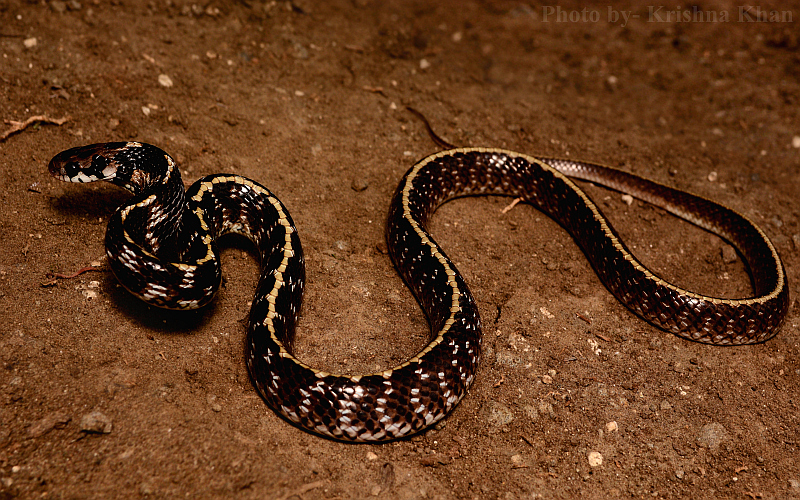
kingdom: Animalia
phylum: Chordata
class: Squamata
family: Colubridae
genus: Boiga
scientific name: Boiga westermanni
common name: Indian egg-eating snake
